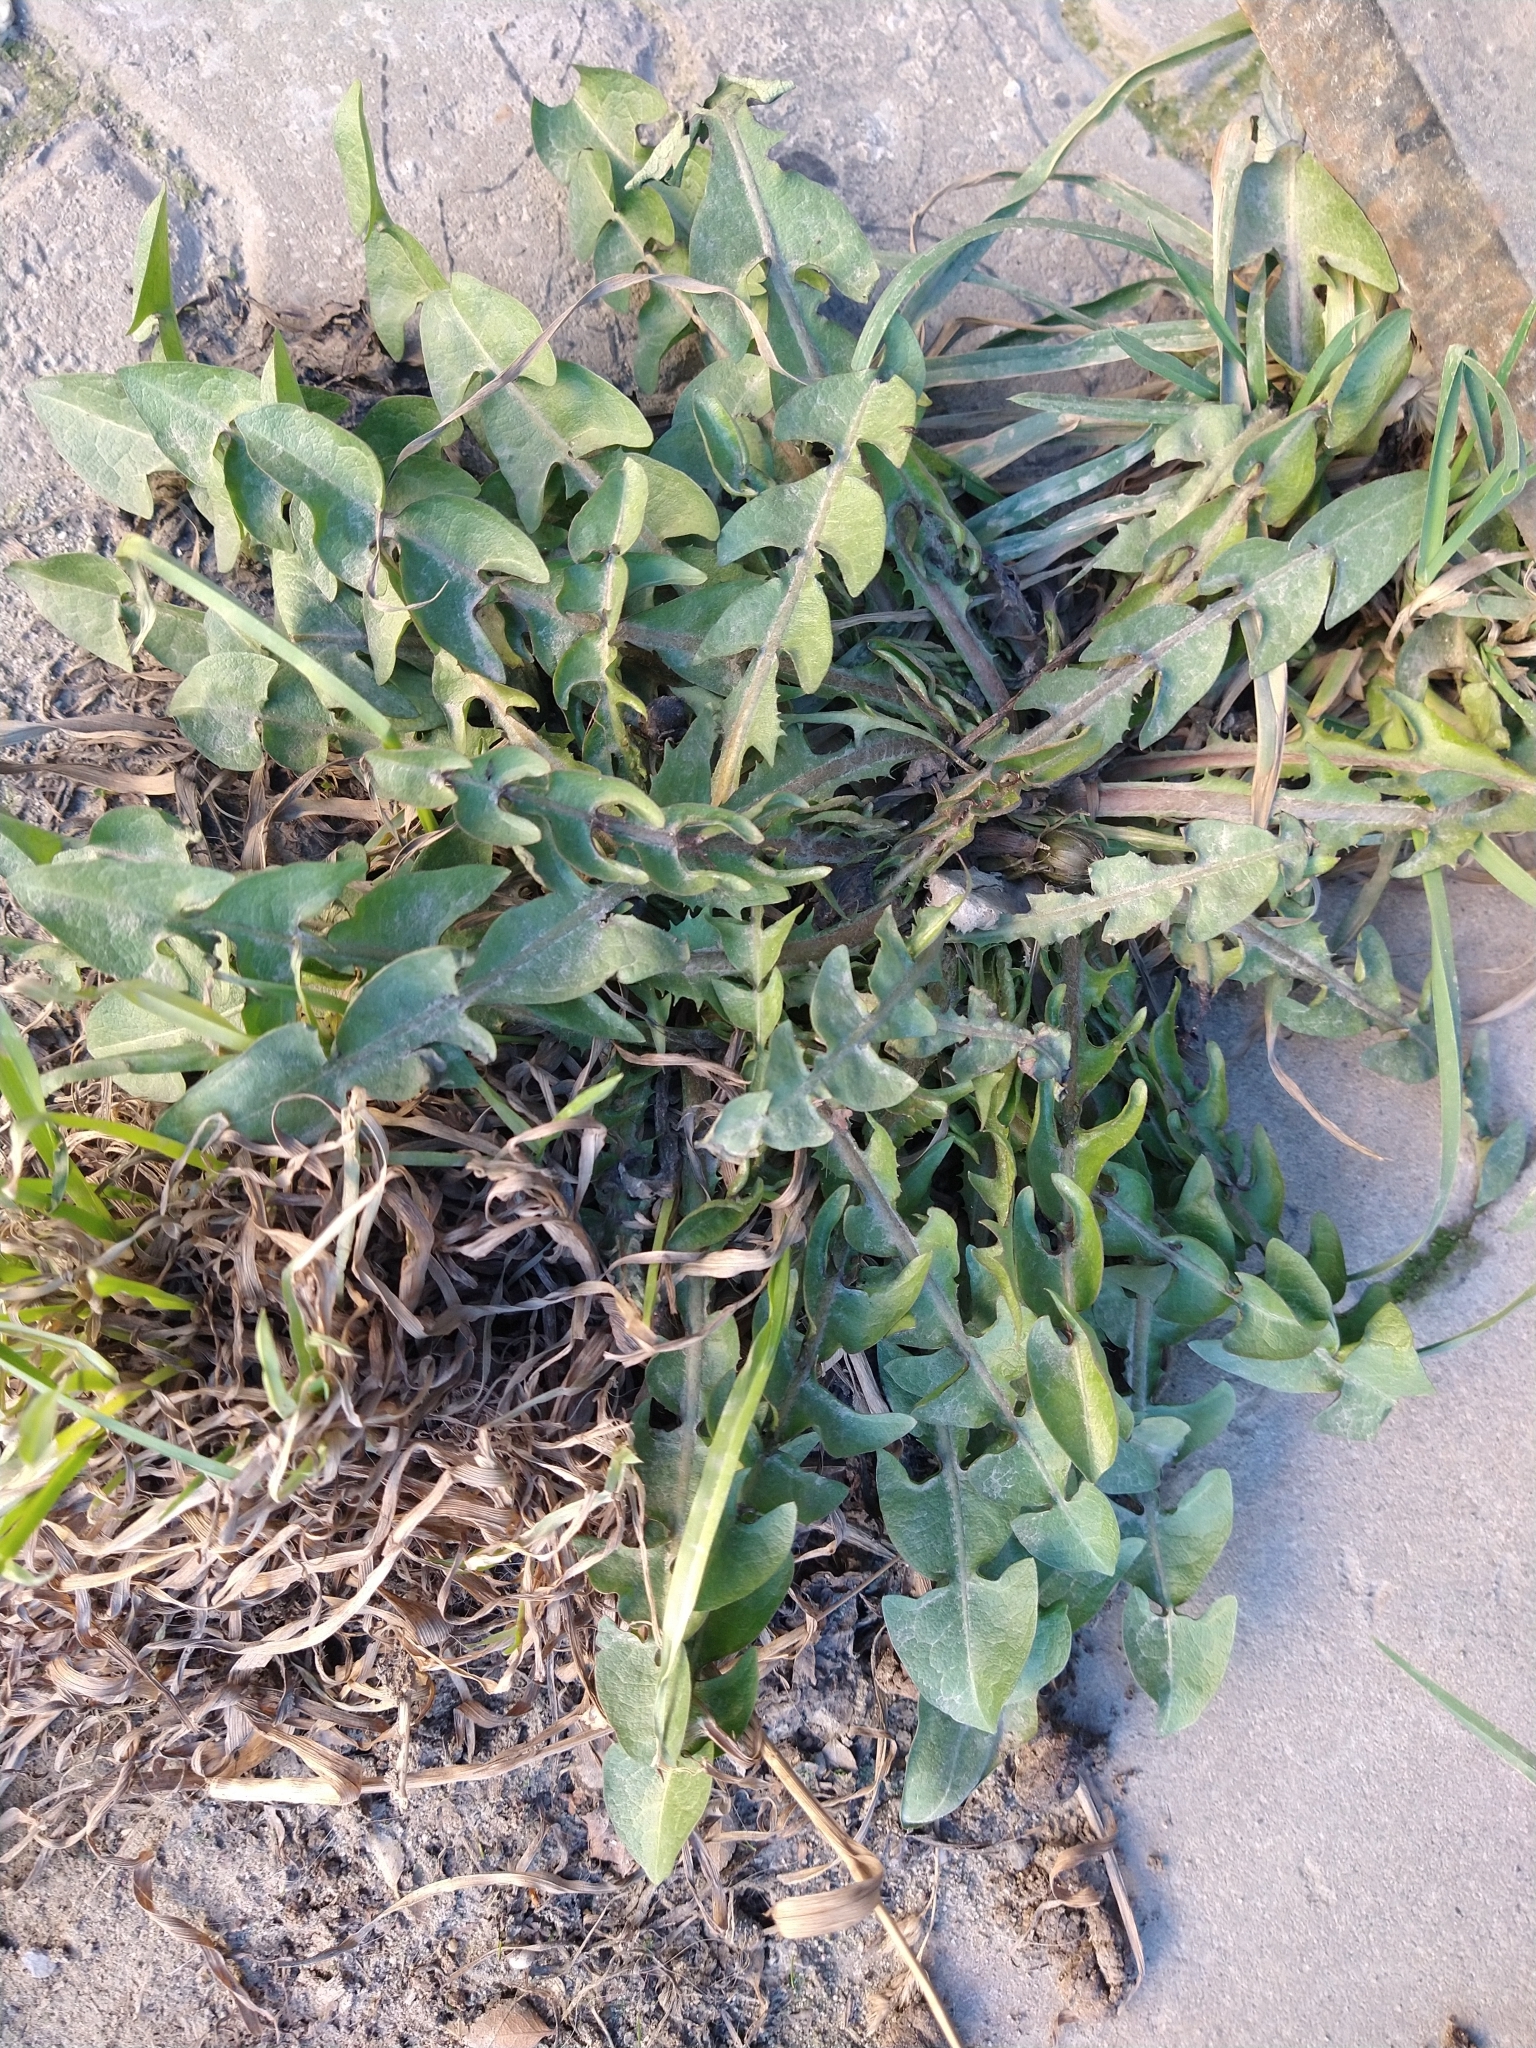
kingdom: Plantae
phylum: Tracheophyta
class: Magnoliopsida
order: Asterales
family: Asteraceae
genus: Taraxacum
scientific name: Taraxacum officinale
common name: Common dandelion
